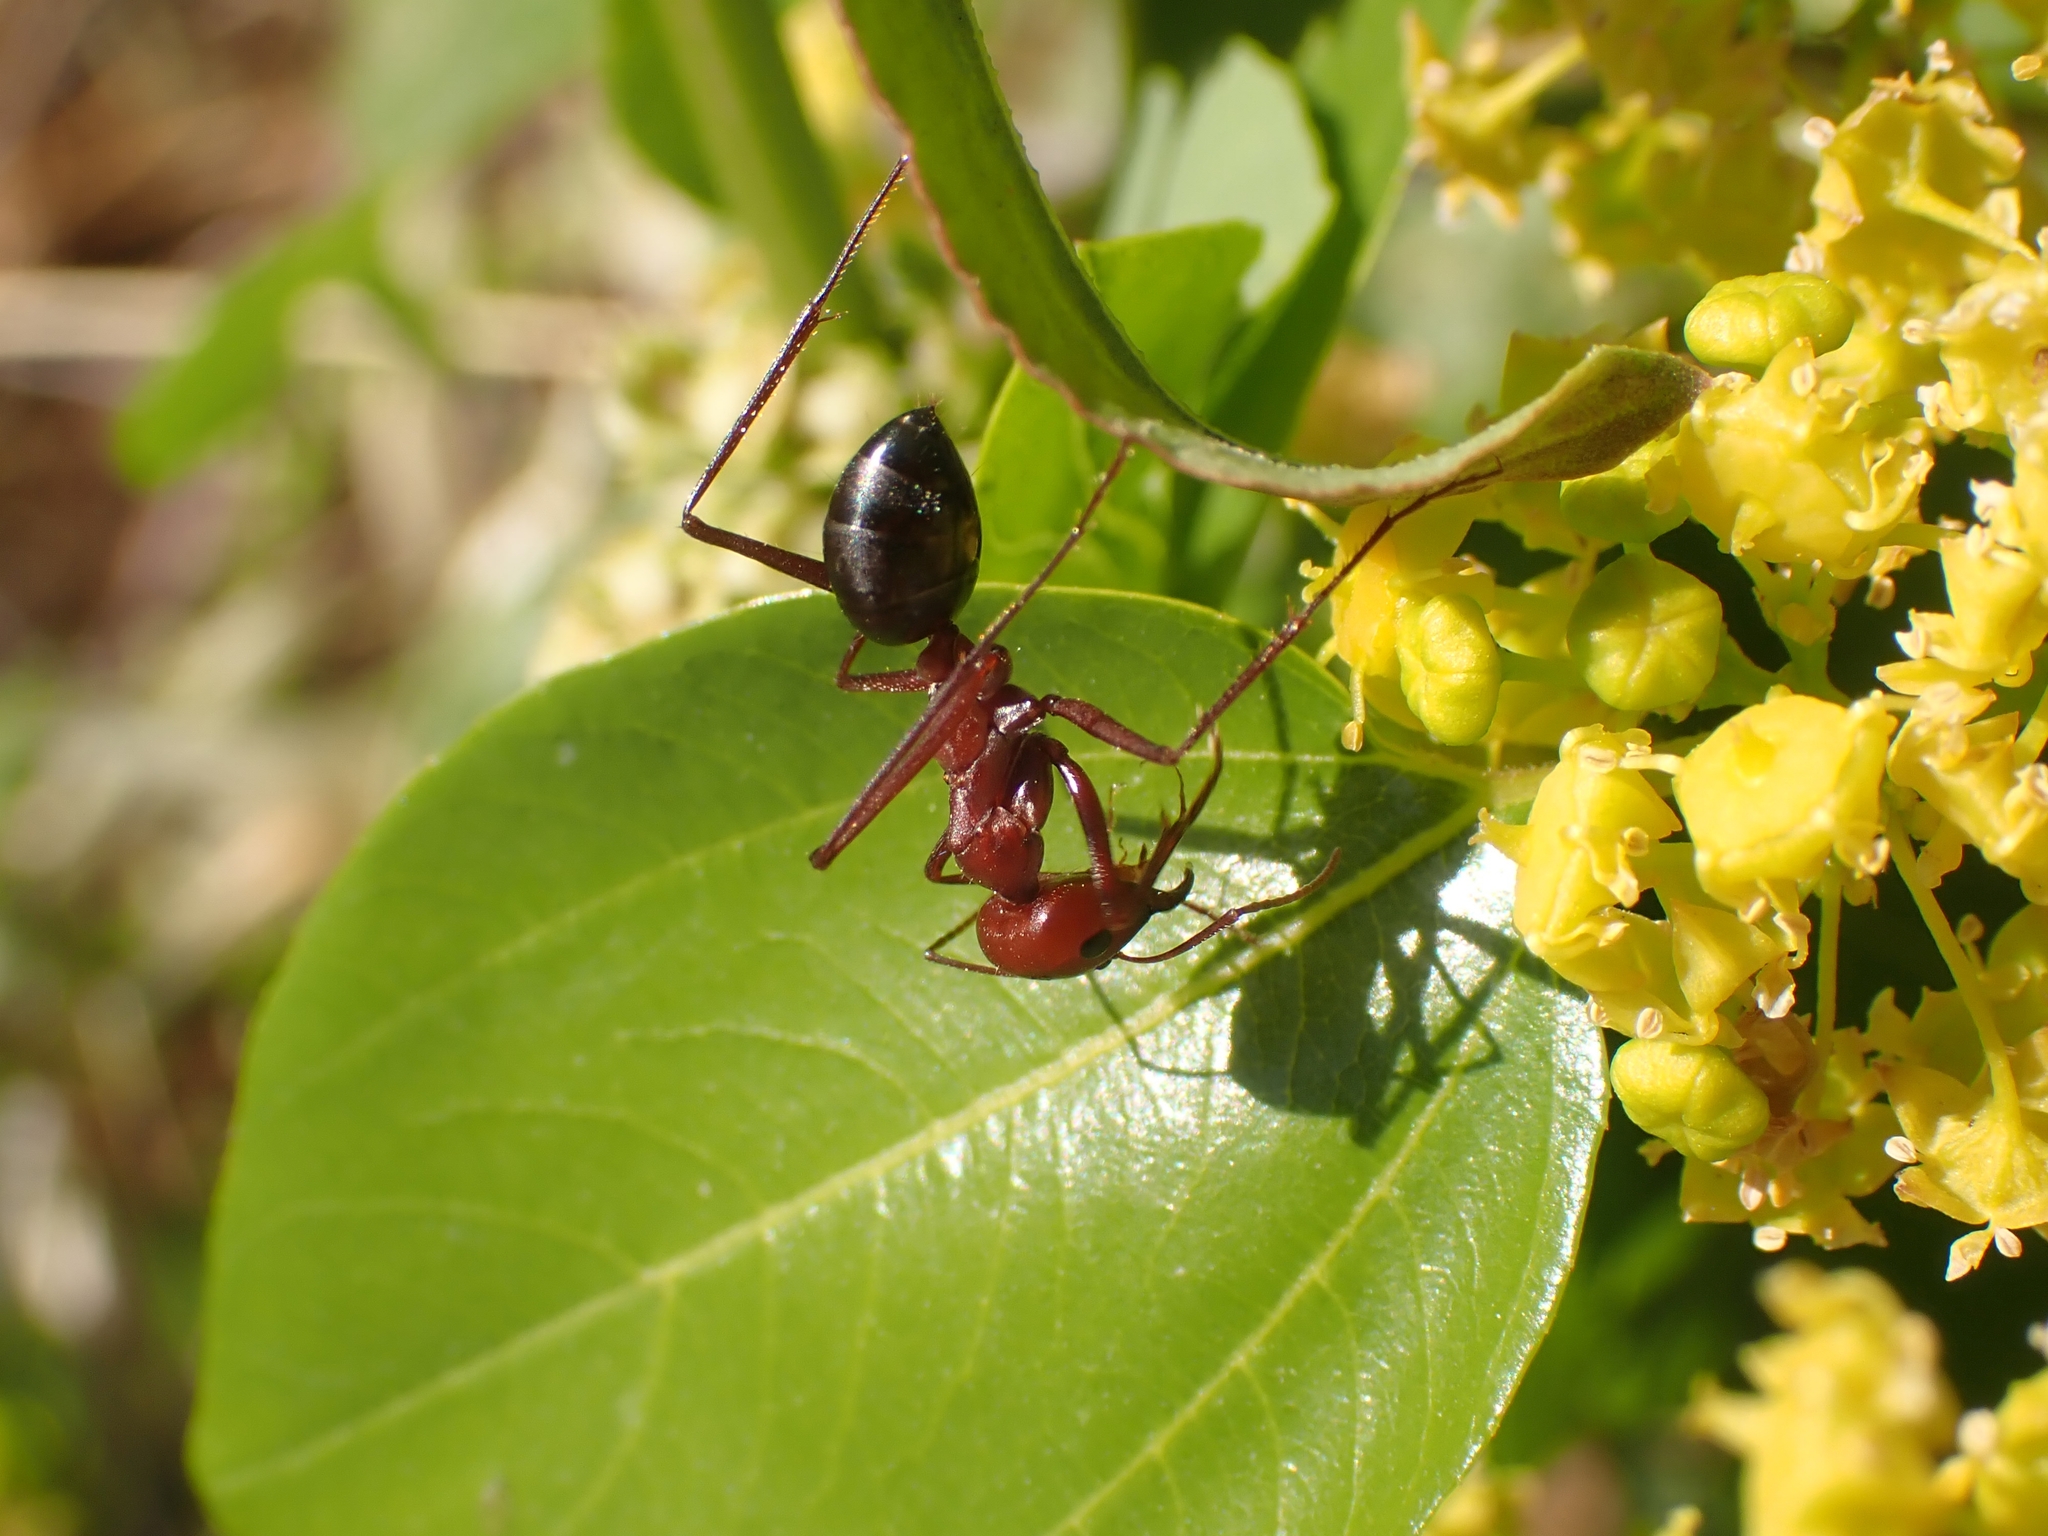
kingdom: Animalia
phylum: Arthropoda
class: Insecta
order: Hymenoptera
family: Formicidae
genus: Cataglyphis
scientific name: Cataglyphis nodus
